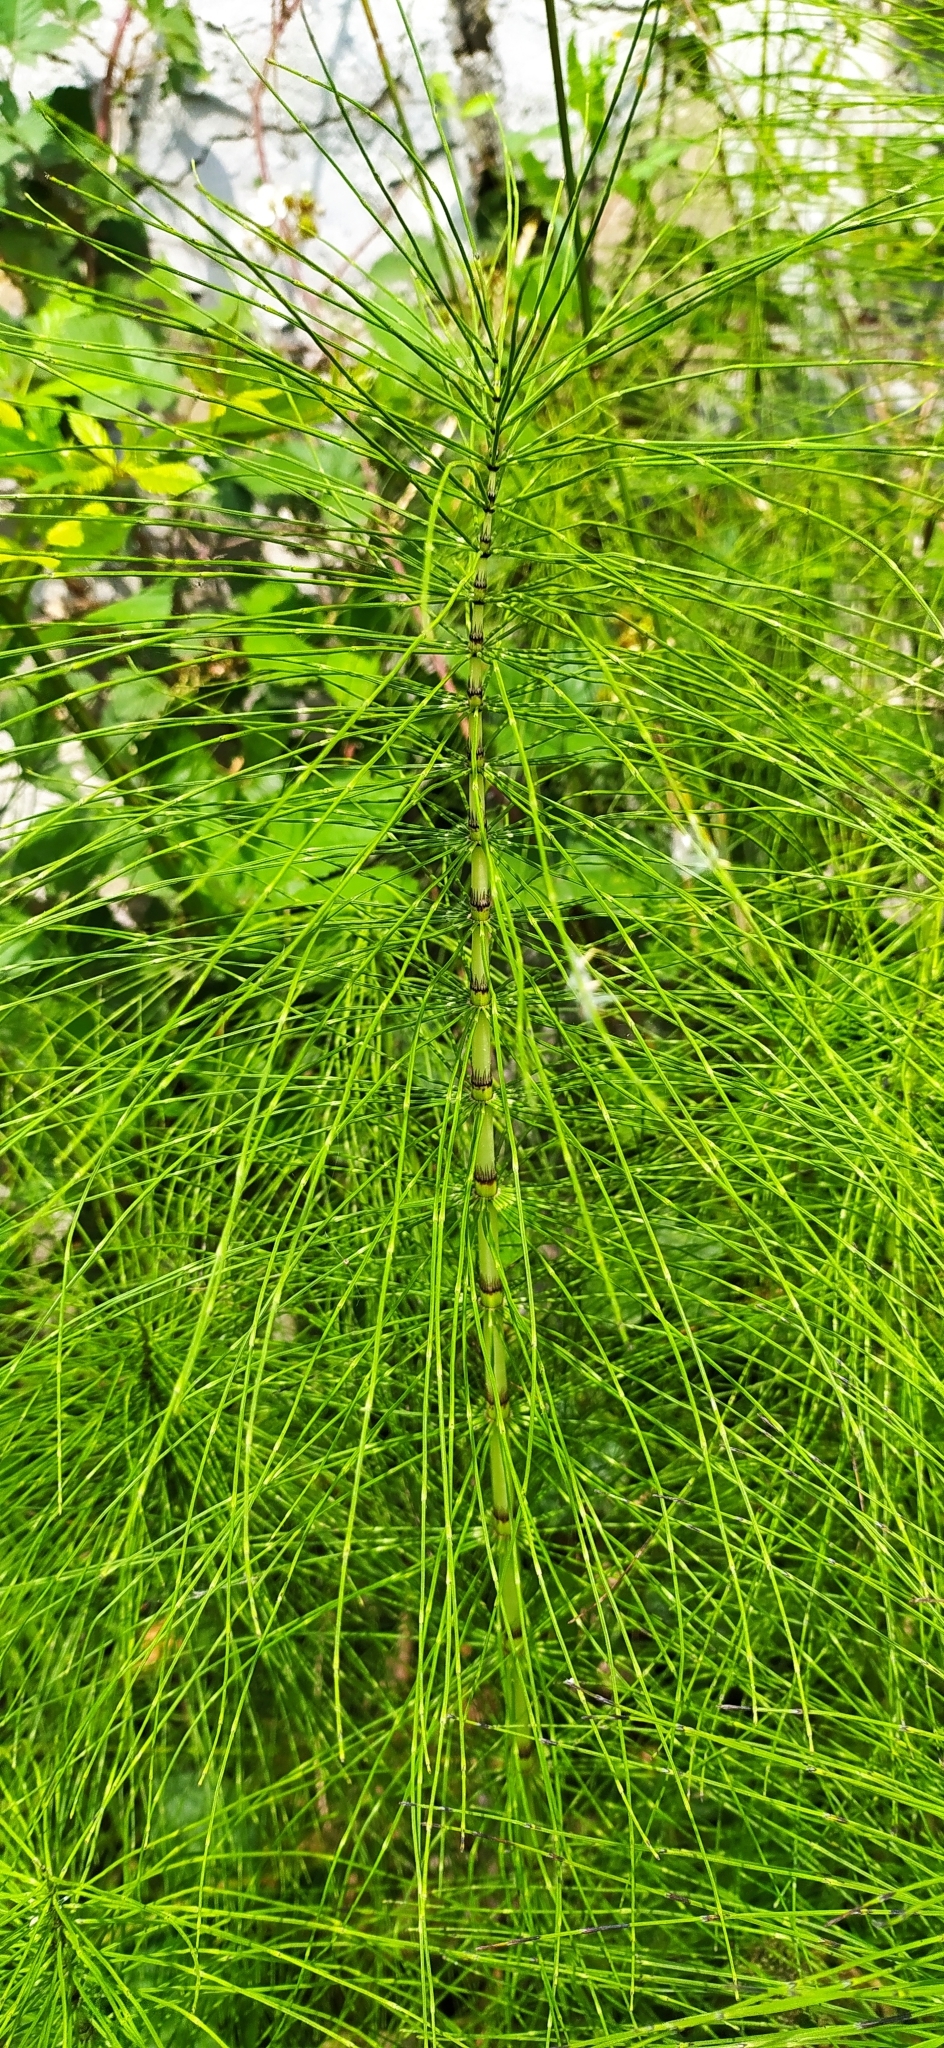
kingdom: Plantae
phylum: Tracheophyta
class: Polypodiopsida
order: Equisetales
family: Equisetaceae
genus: Equisetum
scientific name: Equisetum telmateia
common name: Great horsetail
